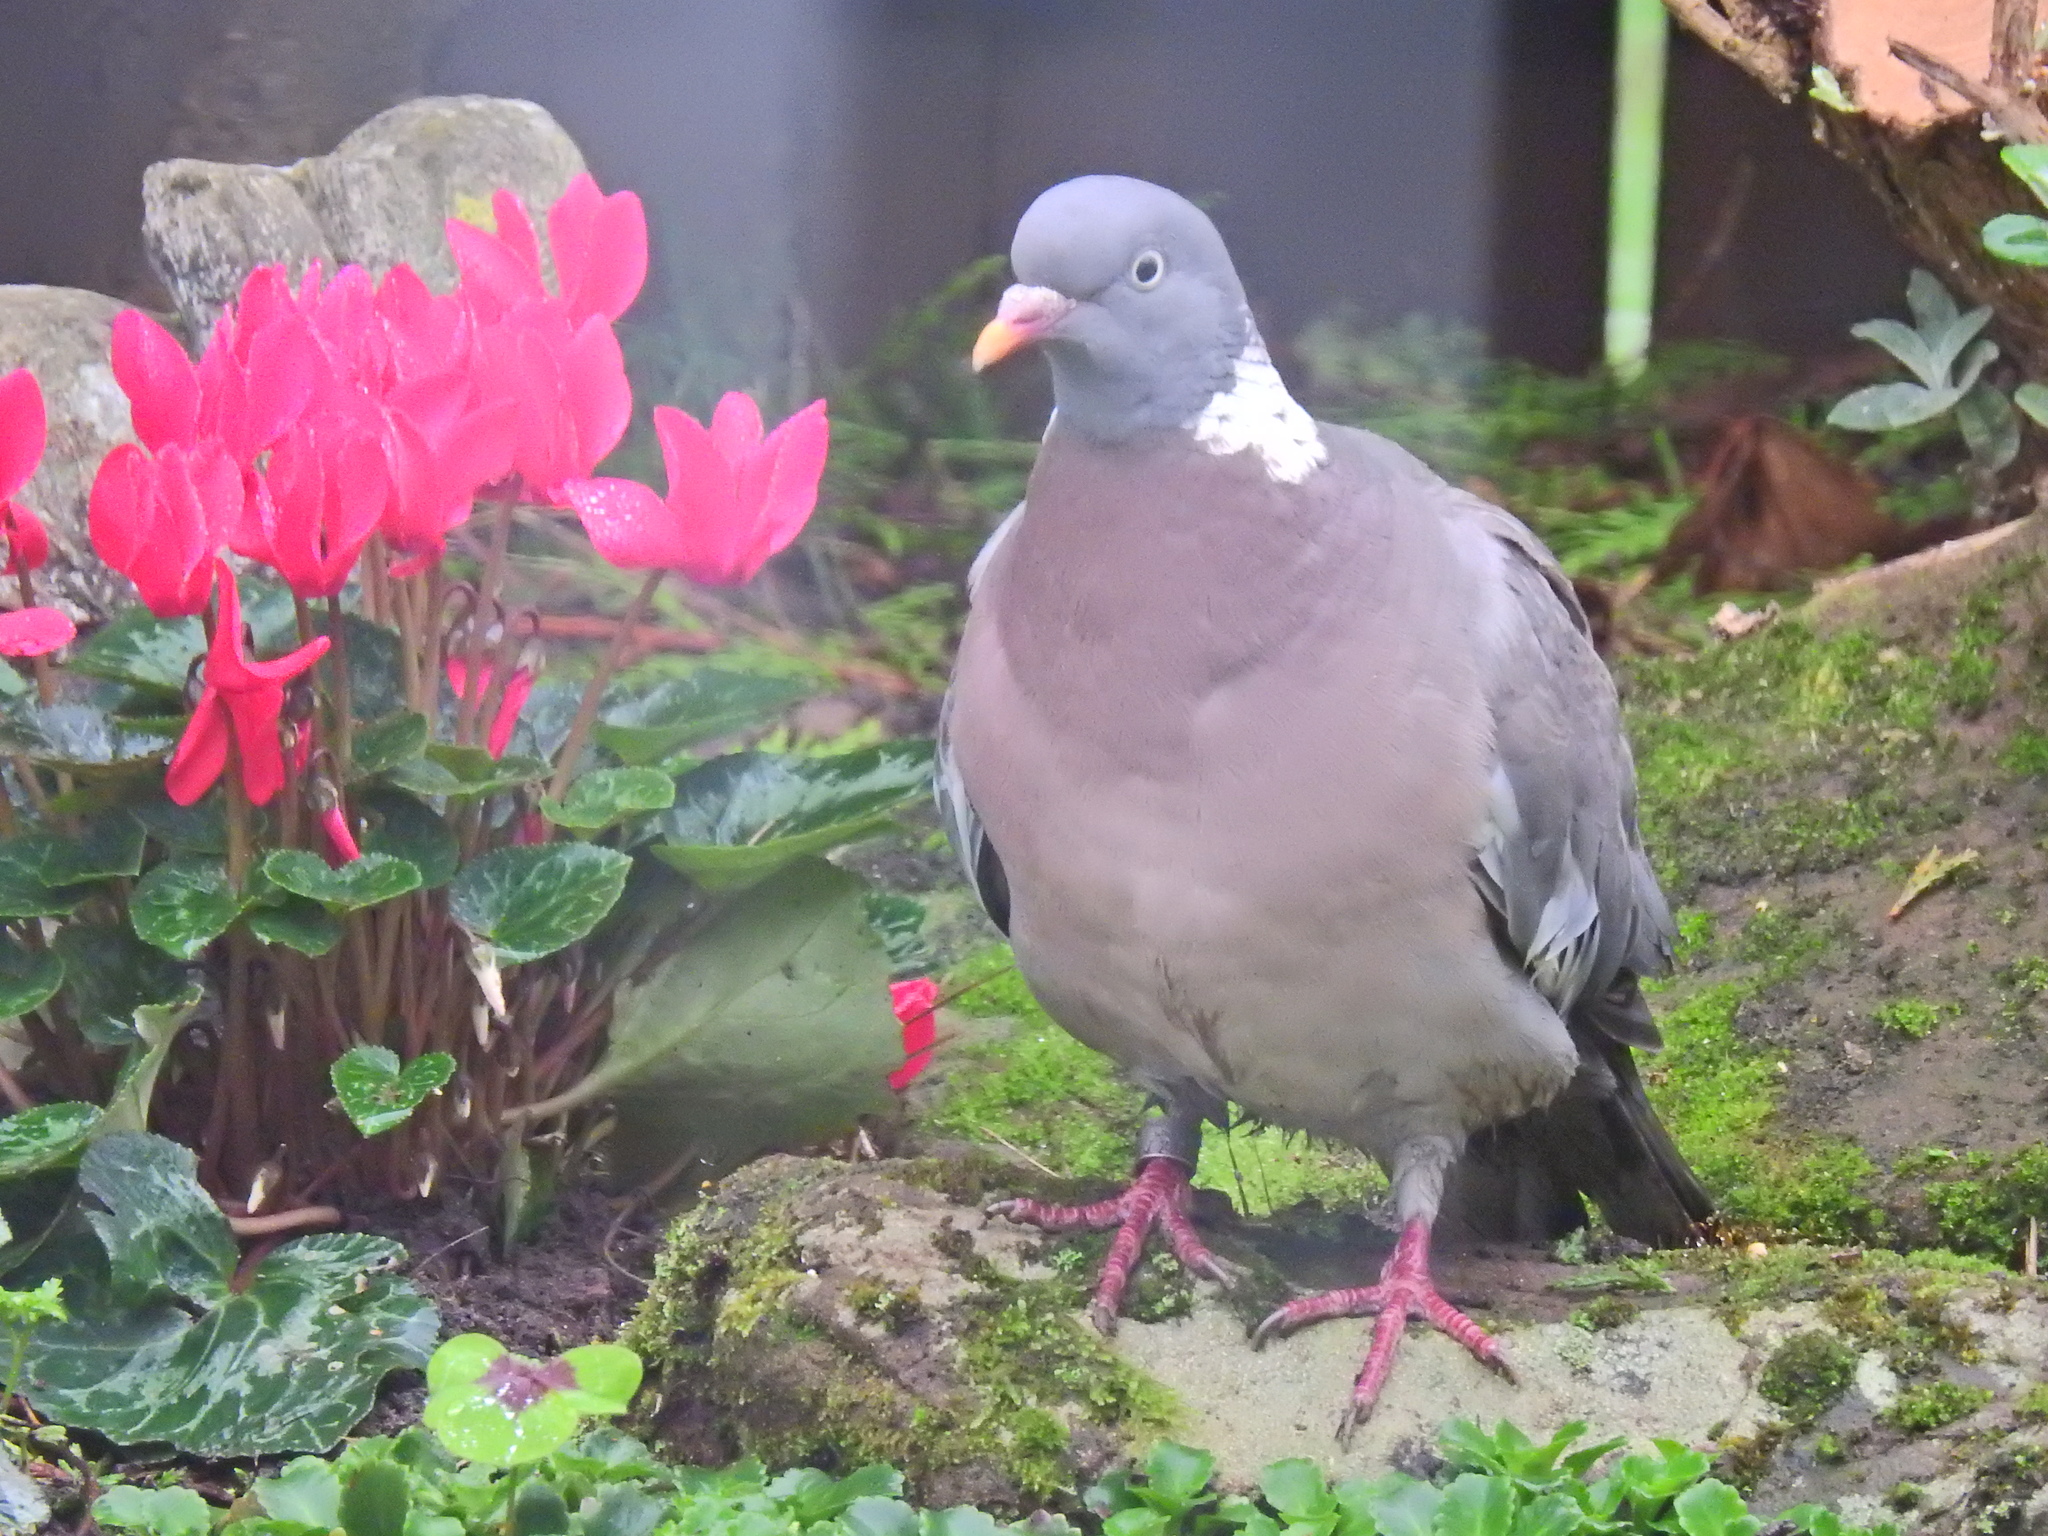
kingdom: Animalia
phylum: Chordata
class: Aves
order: Columbiformes
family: Columbidae
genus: Columba
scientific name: Columba palumbus
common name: Common wood pigeon
